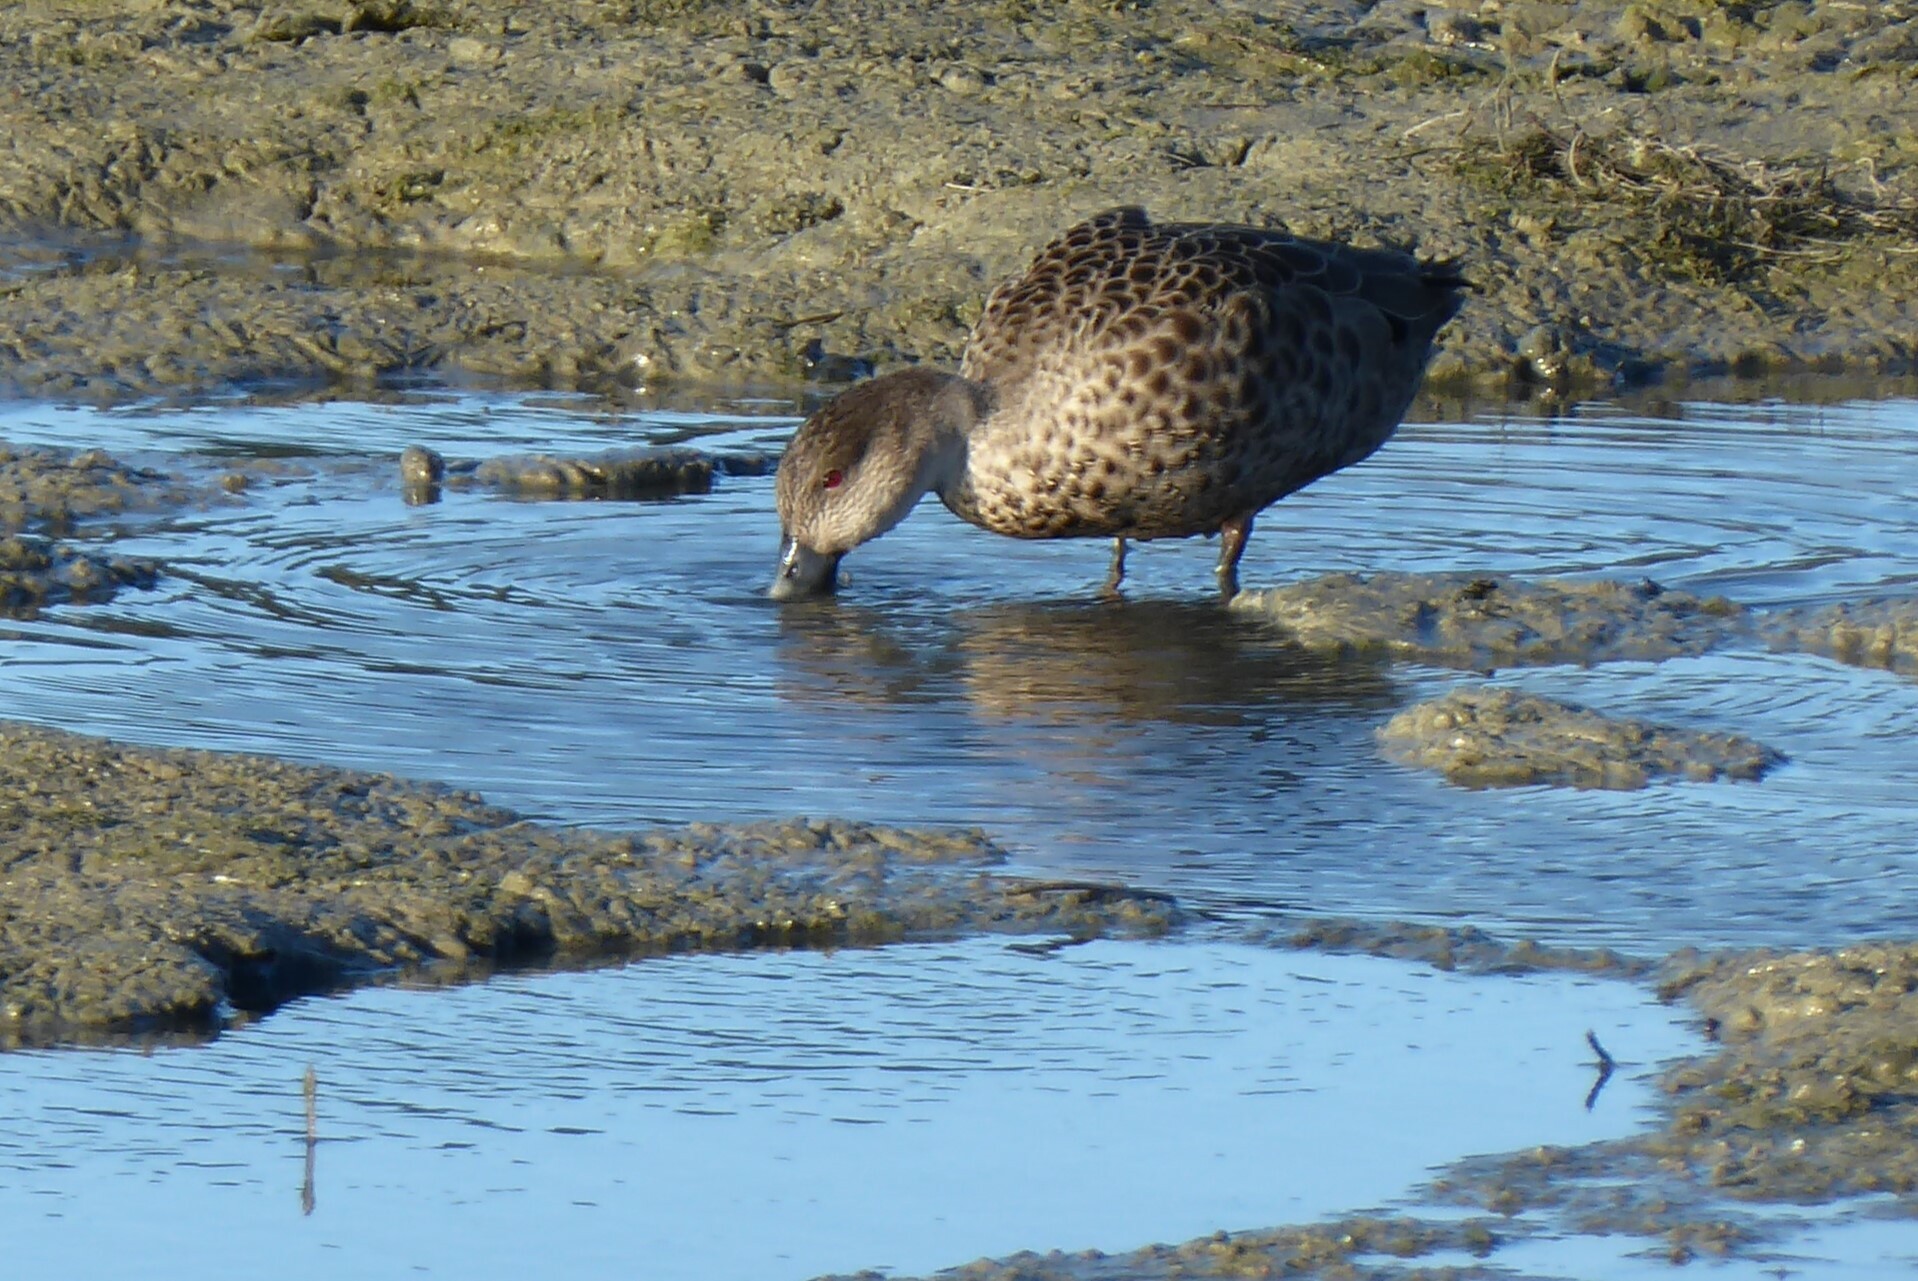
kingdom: Animalia
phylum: Chordata
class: Aves
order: Anseriformes
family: Anatidae
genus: Anas
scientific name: Anas gracilis
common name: Grey teal
